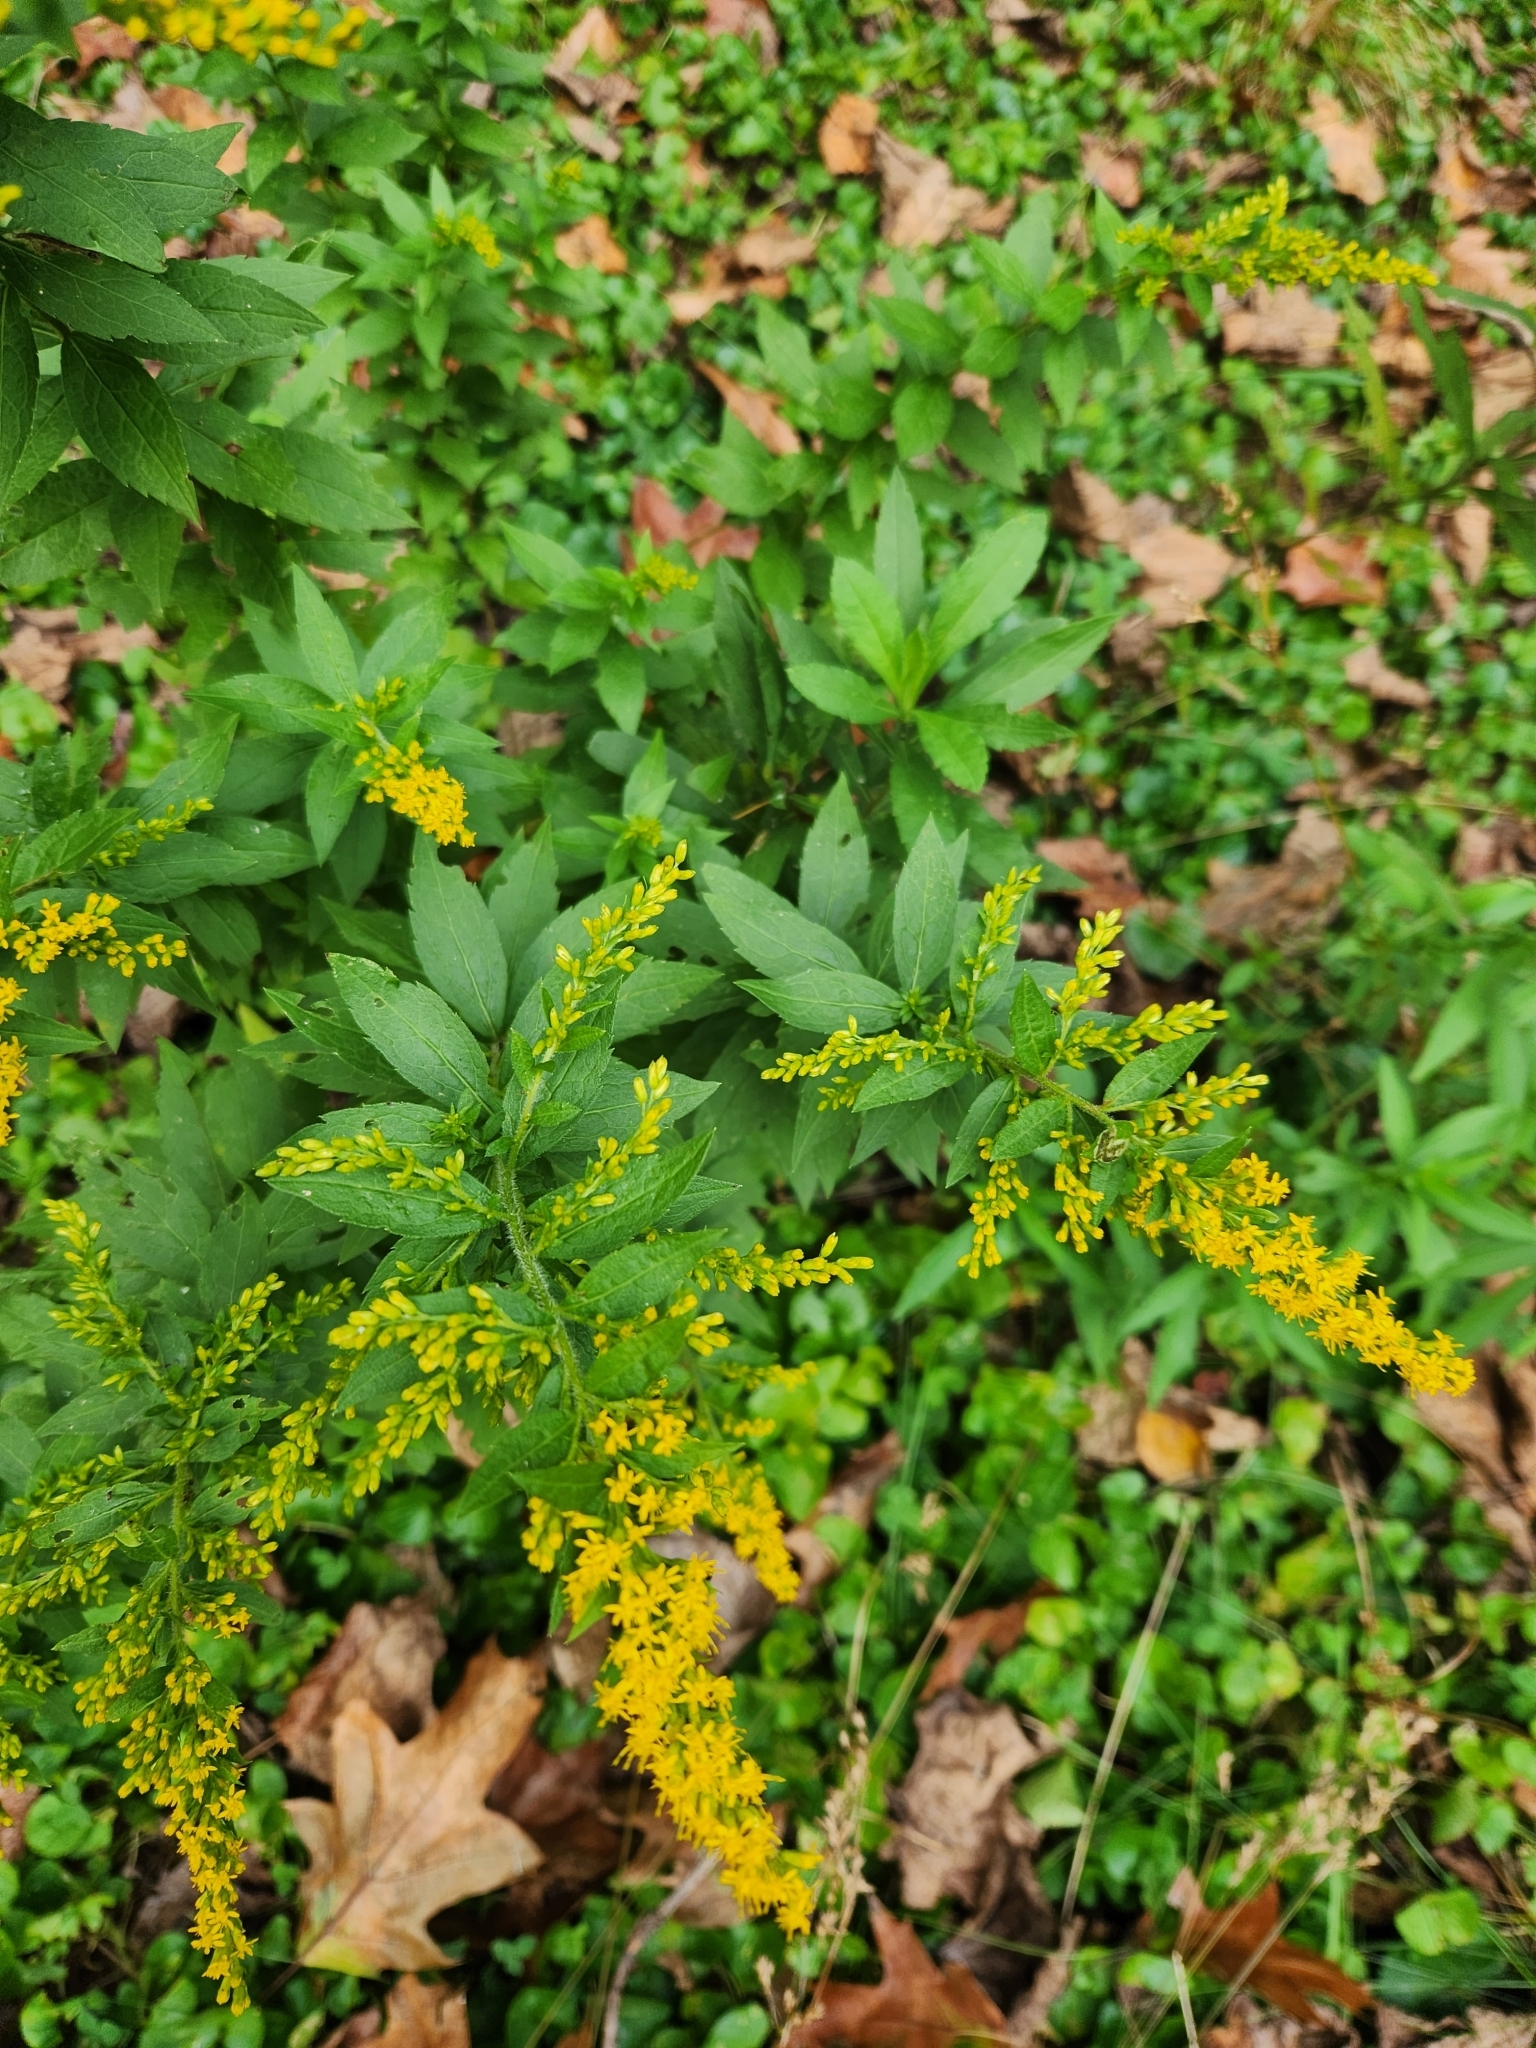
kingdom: Plantae
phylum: Tracheophyta
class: Magnoliopsida
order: Asterales
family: Asteraceae
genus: Solidago
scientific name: Solidago rugosa
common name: Rough-stemmed goldenrod
